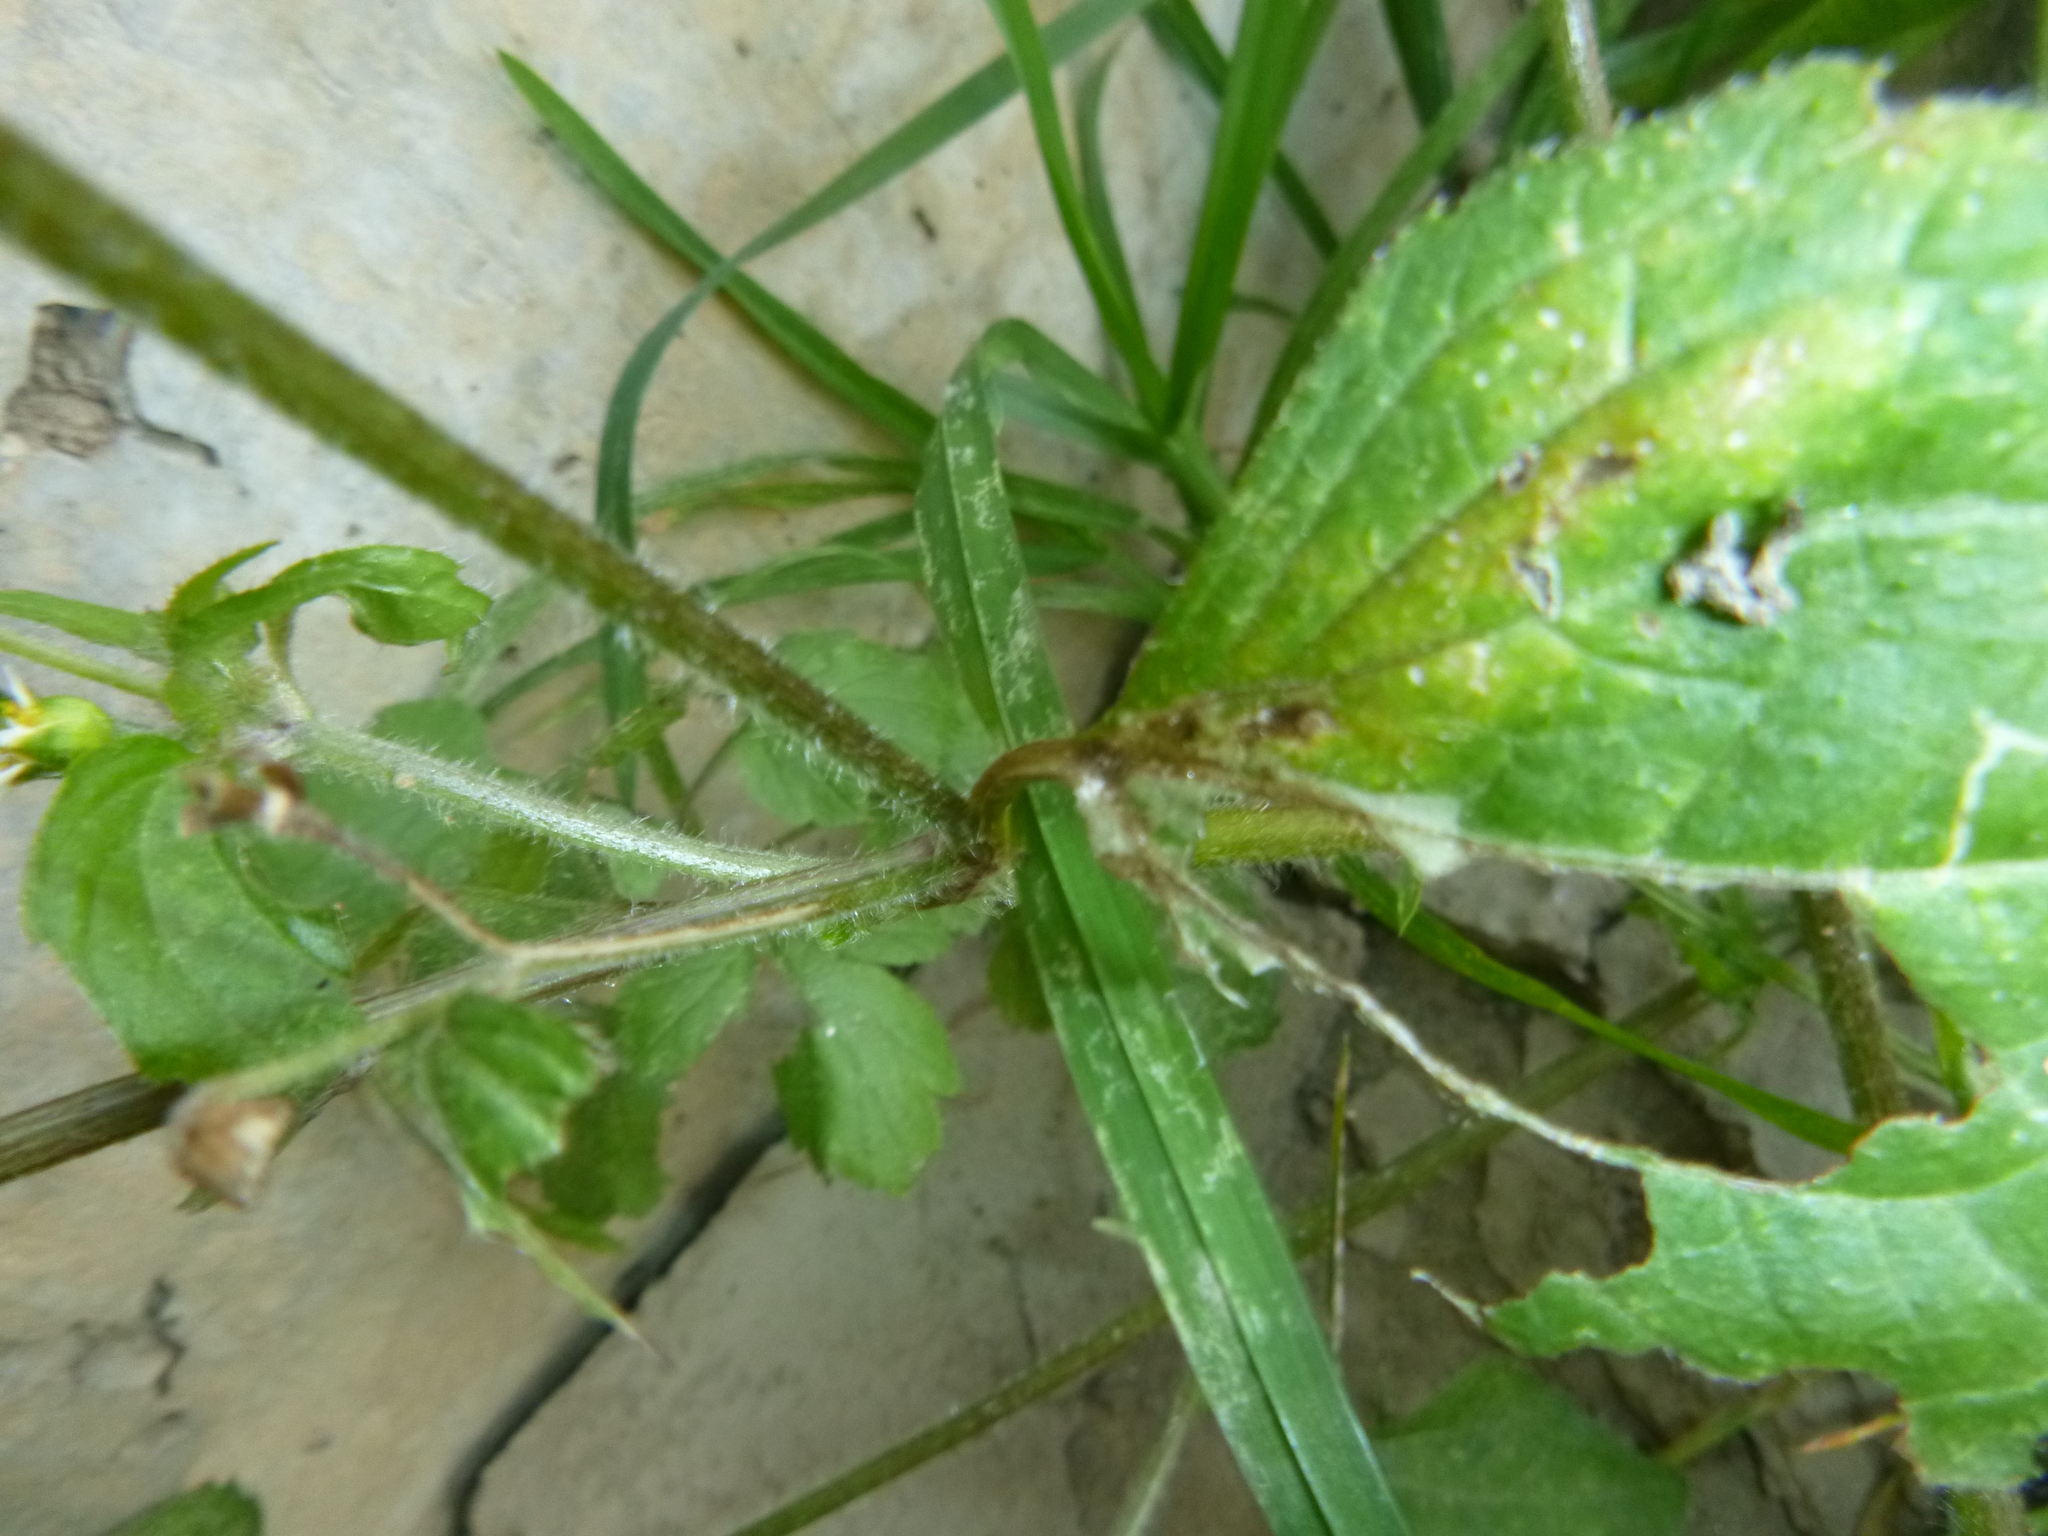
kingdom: Plantae
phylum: Tracheophyta
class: Magnoliopsida
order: Asterales
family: Asteraceae
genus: Galinsoga
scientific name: Galinsoga quadriradiata
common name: Shaggy soldier
